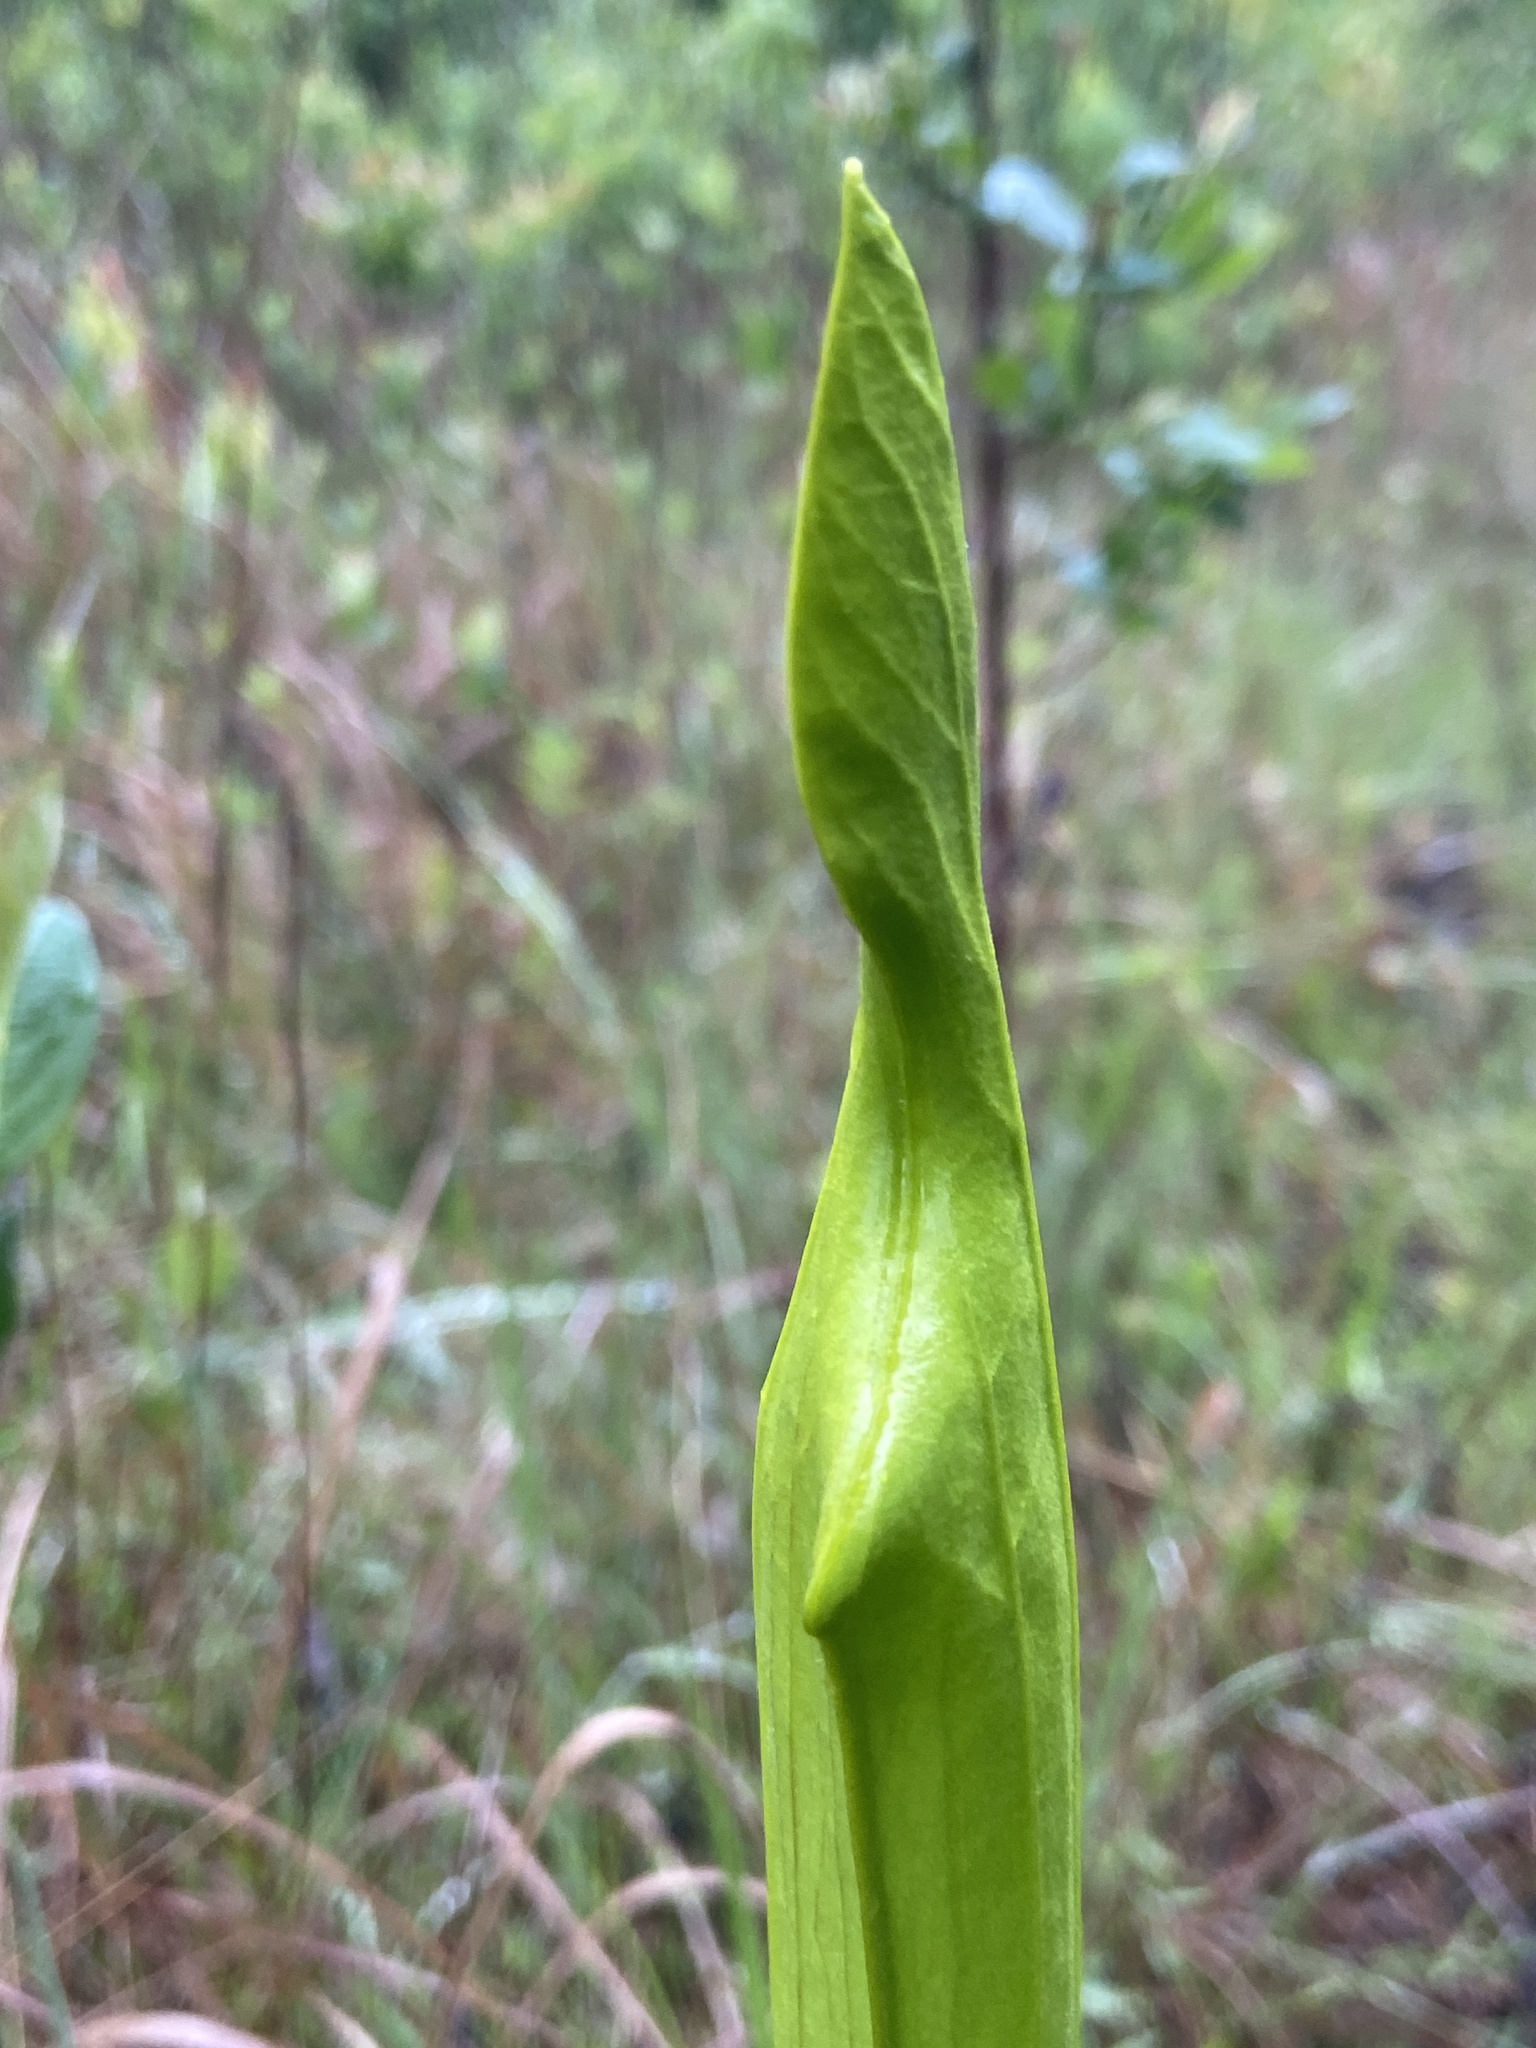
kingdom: Plantae
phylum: Tracheophyta
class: Magnoliopsida
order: Ericales
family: Sarraceniaceae
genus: Sarracenia
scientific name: Sarracenia oreophila
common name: Green pitcherplant
